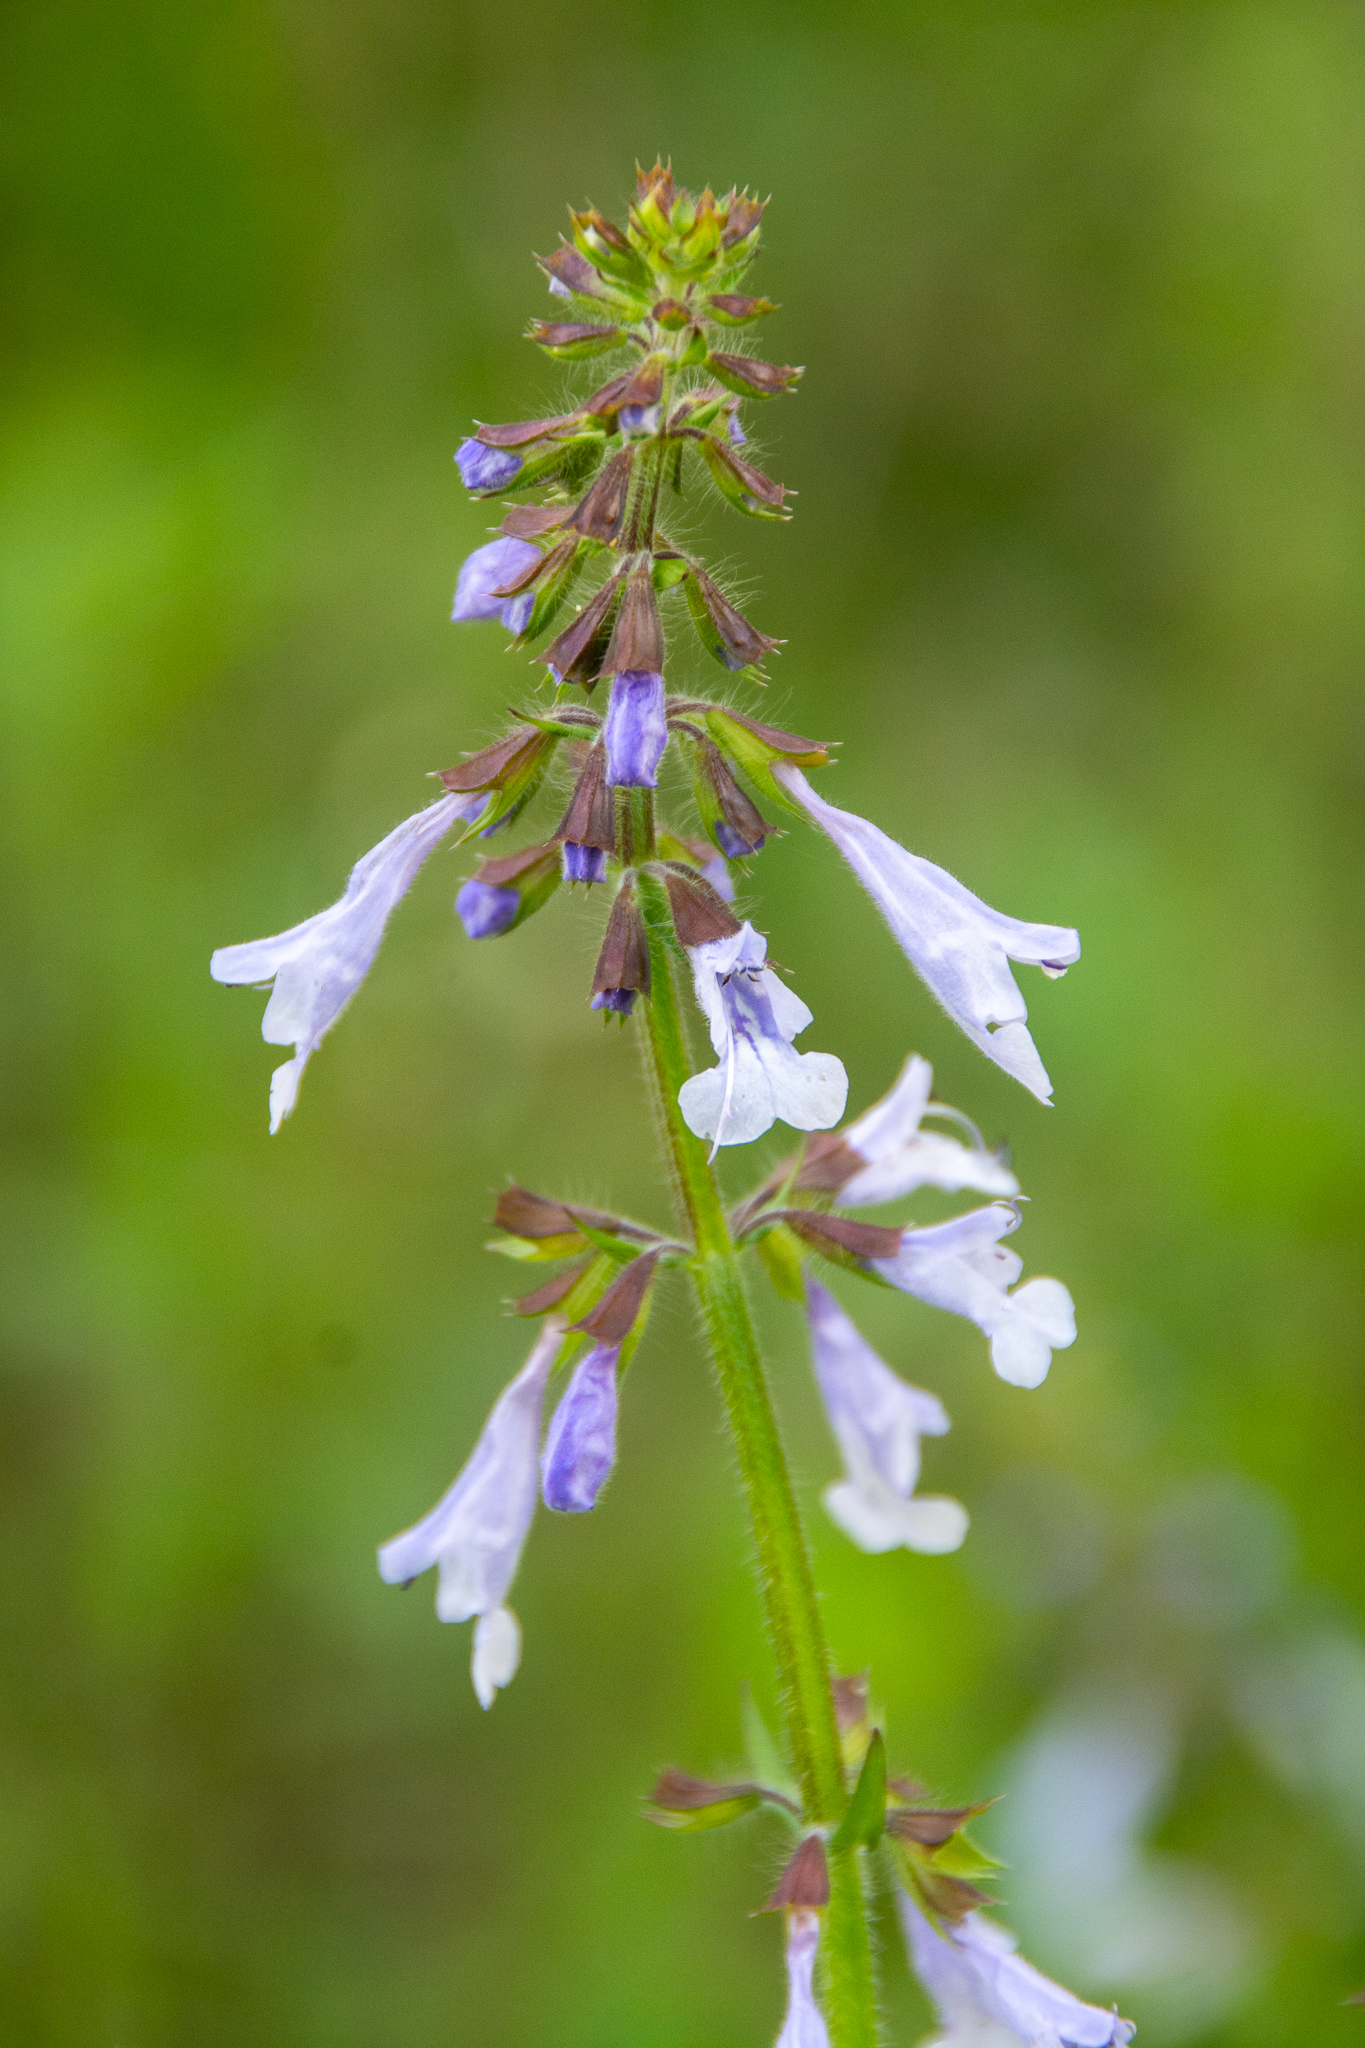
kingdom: Plantae
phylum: Tracheophyta
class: Magnoliopsida
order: Lamiales
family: Lamiaceae
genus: Salvia
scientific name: Salvia lyrata
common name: Cancerweed
